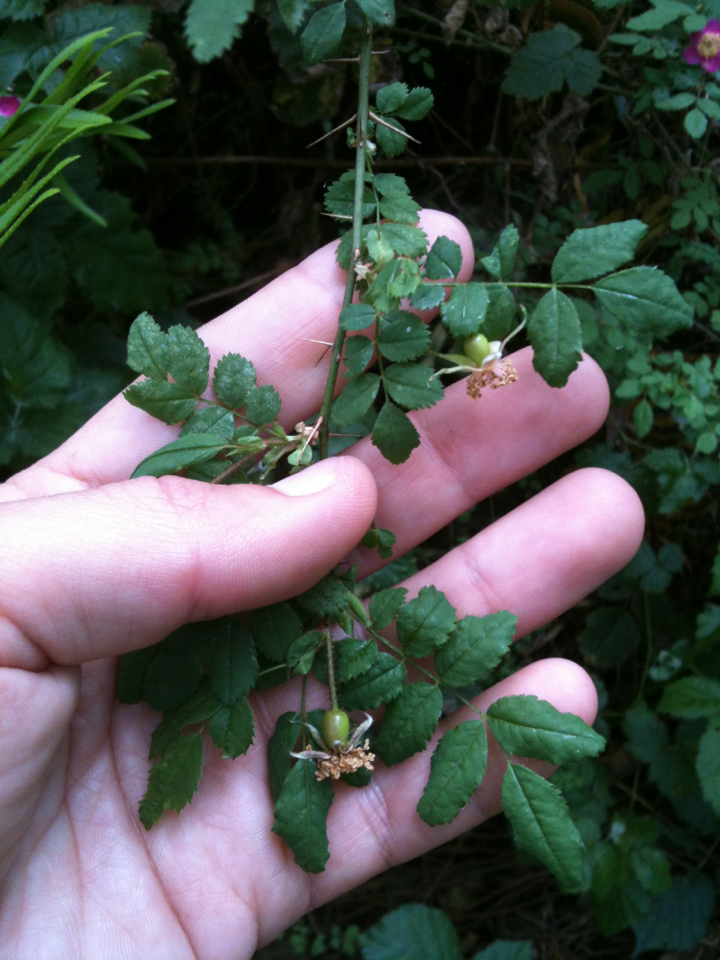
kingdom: Plantae
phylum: Tracheophyta
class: Magnoliopsida
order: Rosales
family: Rosaceae
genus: Rosa
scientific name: Rosa gymnocarpa
